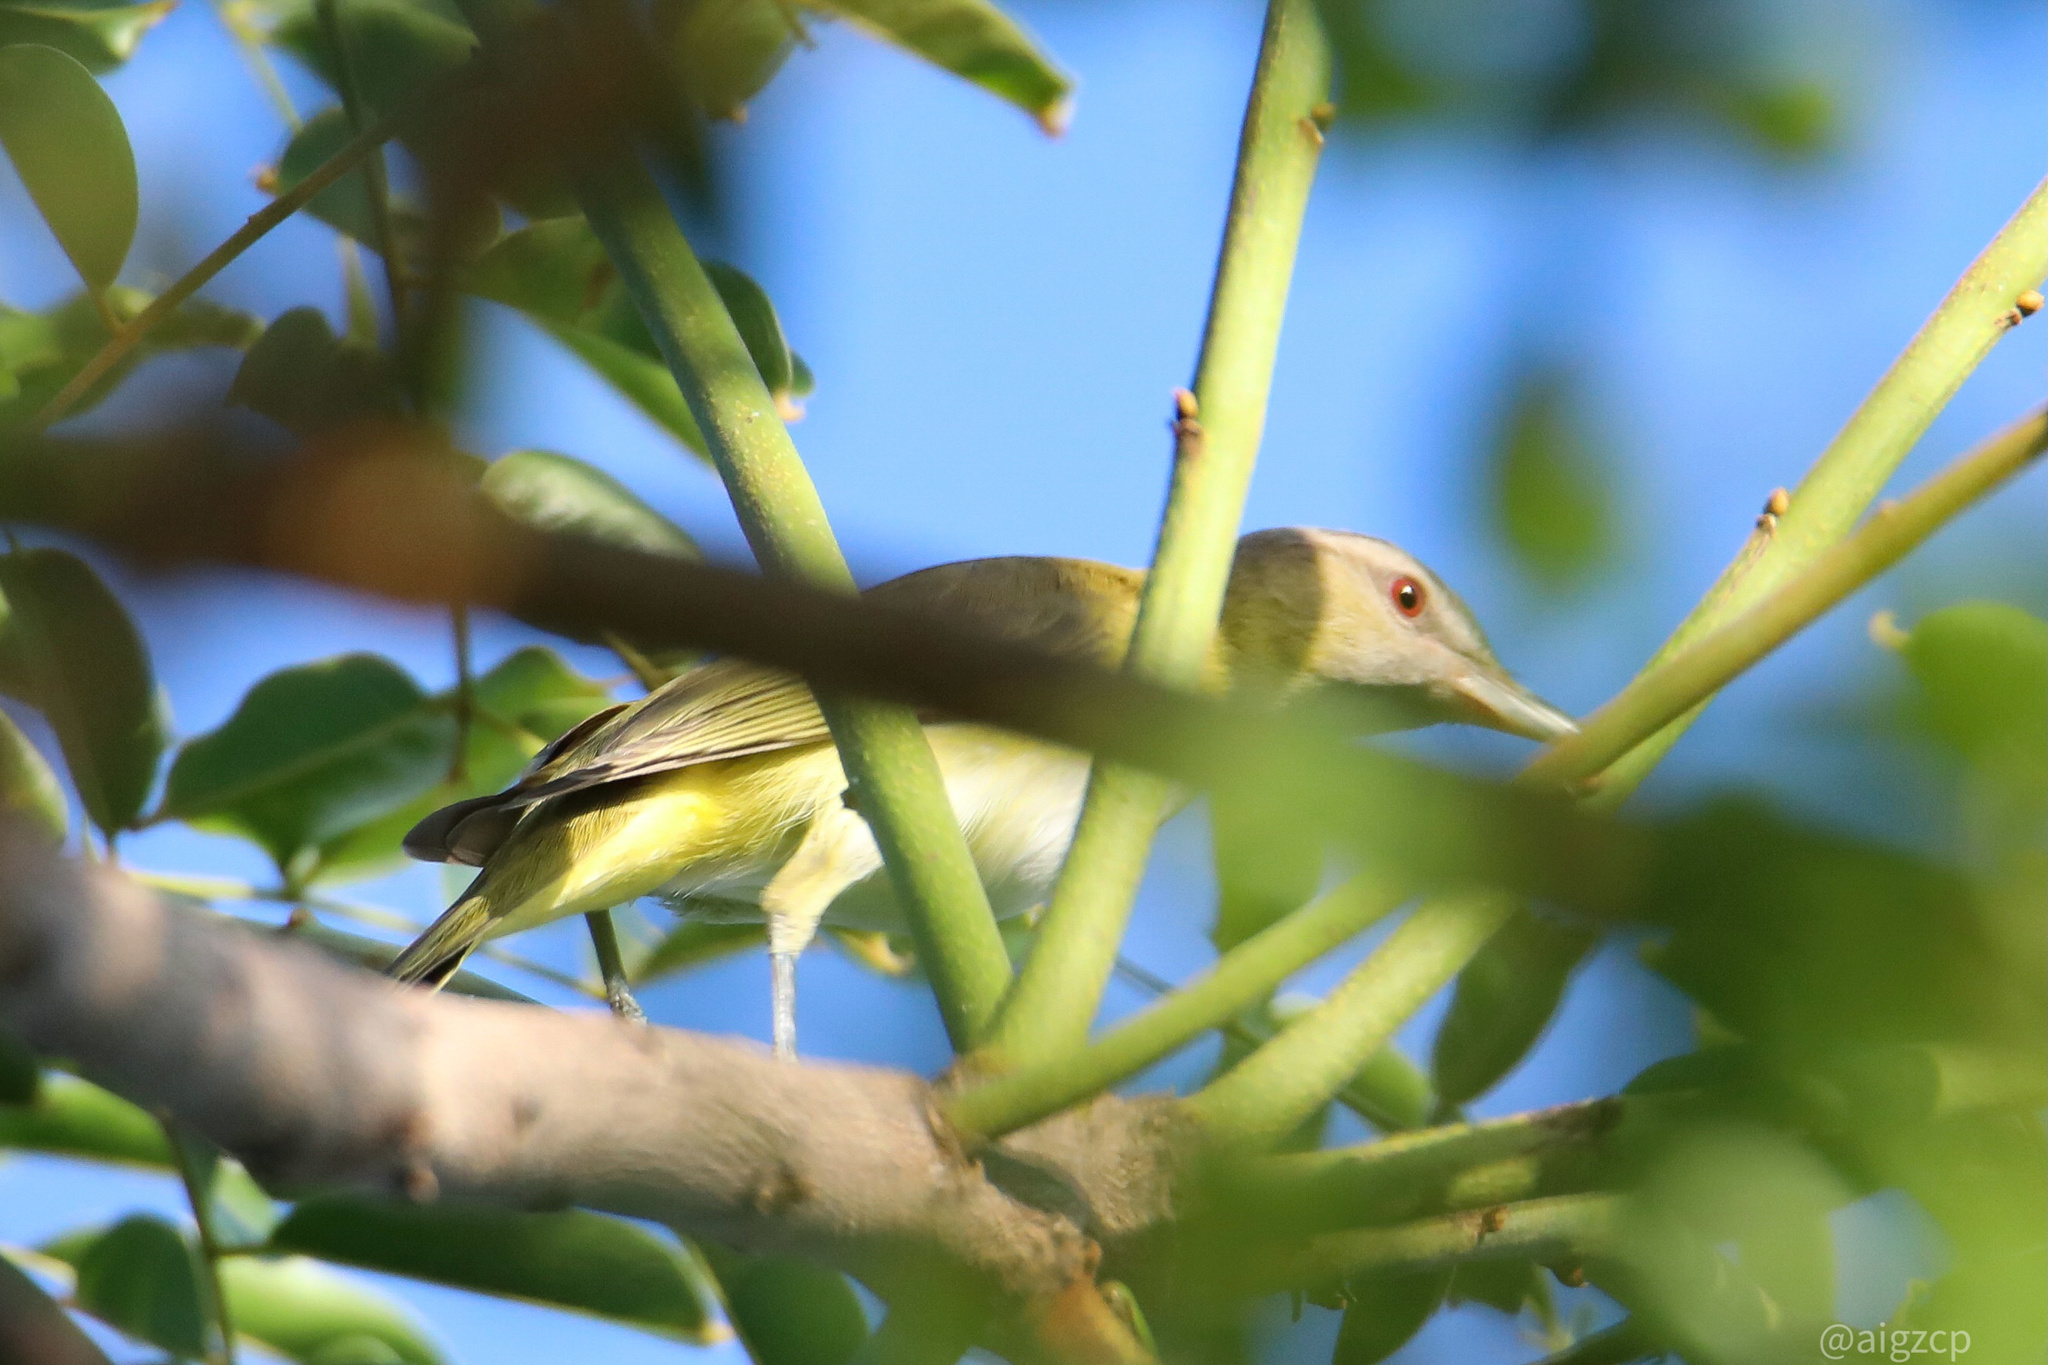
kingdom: Animalia
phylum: Chordata
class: Aves
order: Passeriformes
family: Vireonidae
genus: Vireo
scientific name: Vireo flavoviridis
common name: Yellow-green vireo
